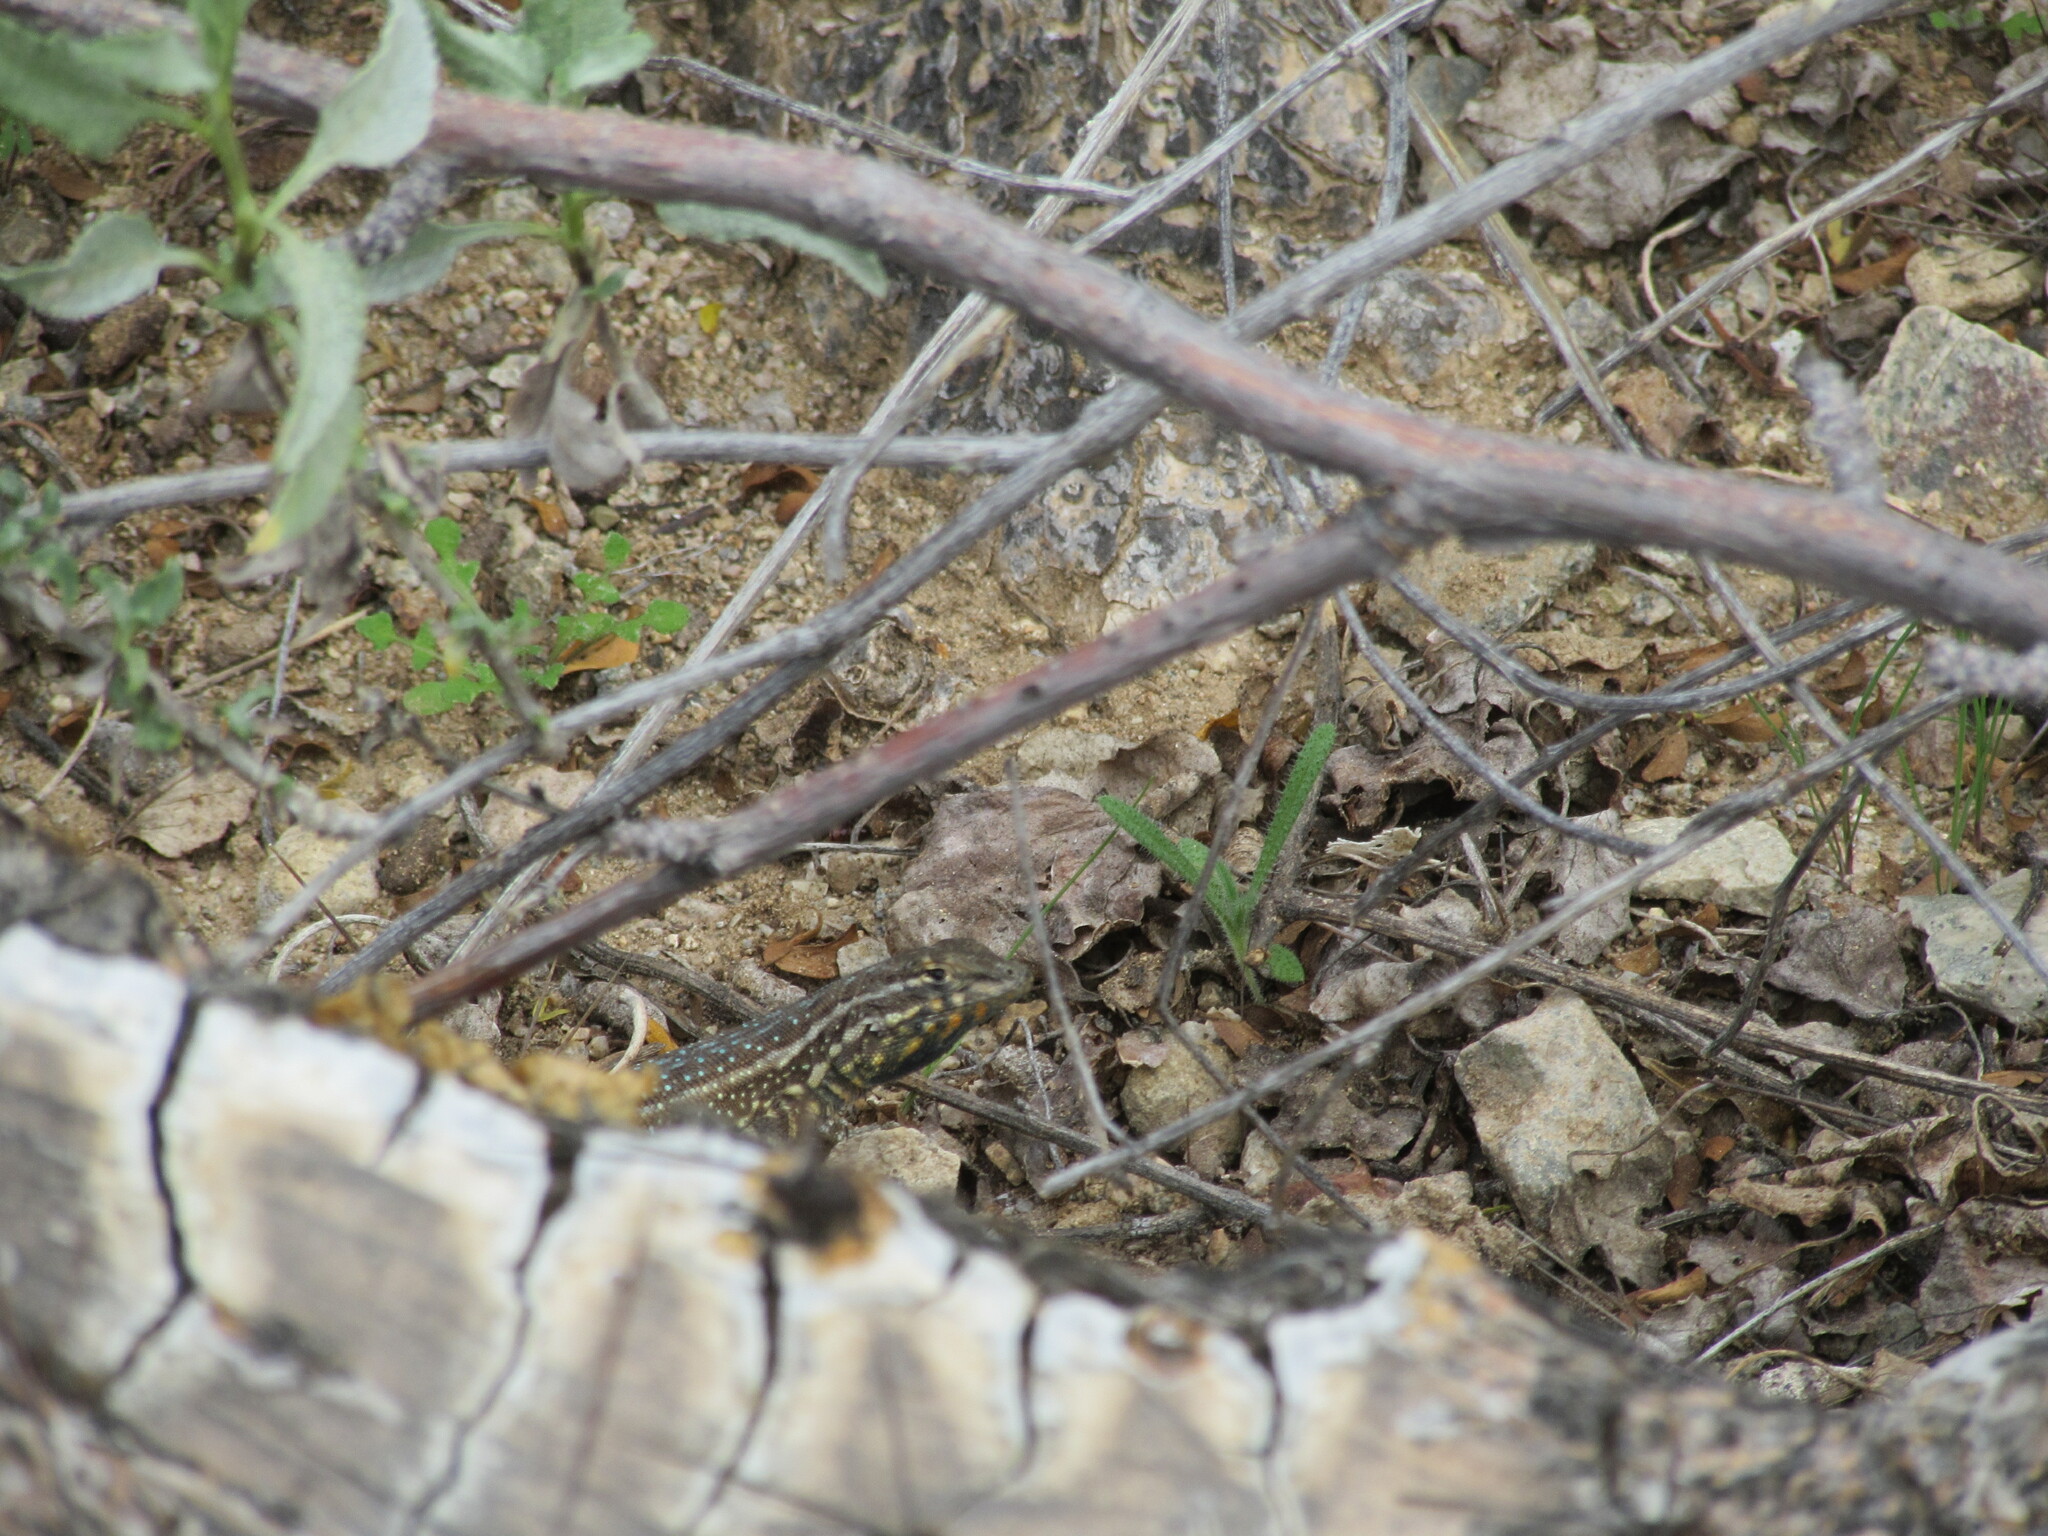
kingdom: Animalia
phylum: Chordata
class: Squamata
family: Phrynosomatidae
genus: Uta
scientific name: Uta stansburiana
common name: Side-blotched lizard
